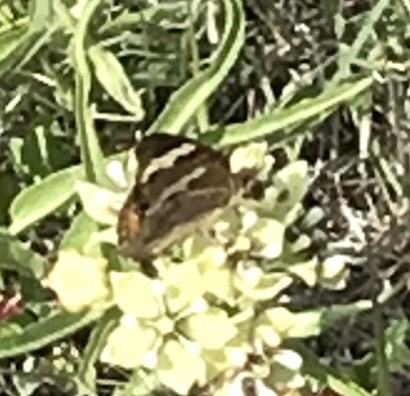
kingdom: Animalia
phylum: Arthropoda
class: Insecta
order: Lepidoptera
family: Nymphalidae
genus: Junonia
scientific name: Junonia coenia
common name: Common buckeye
